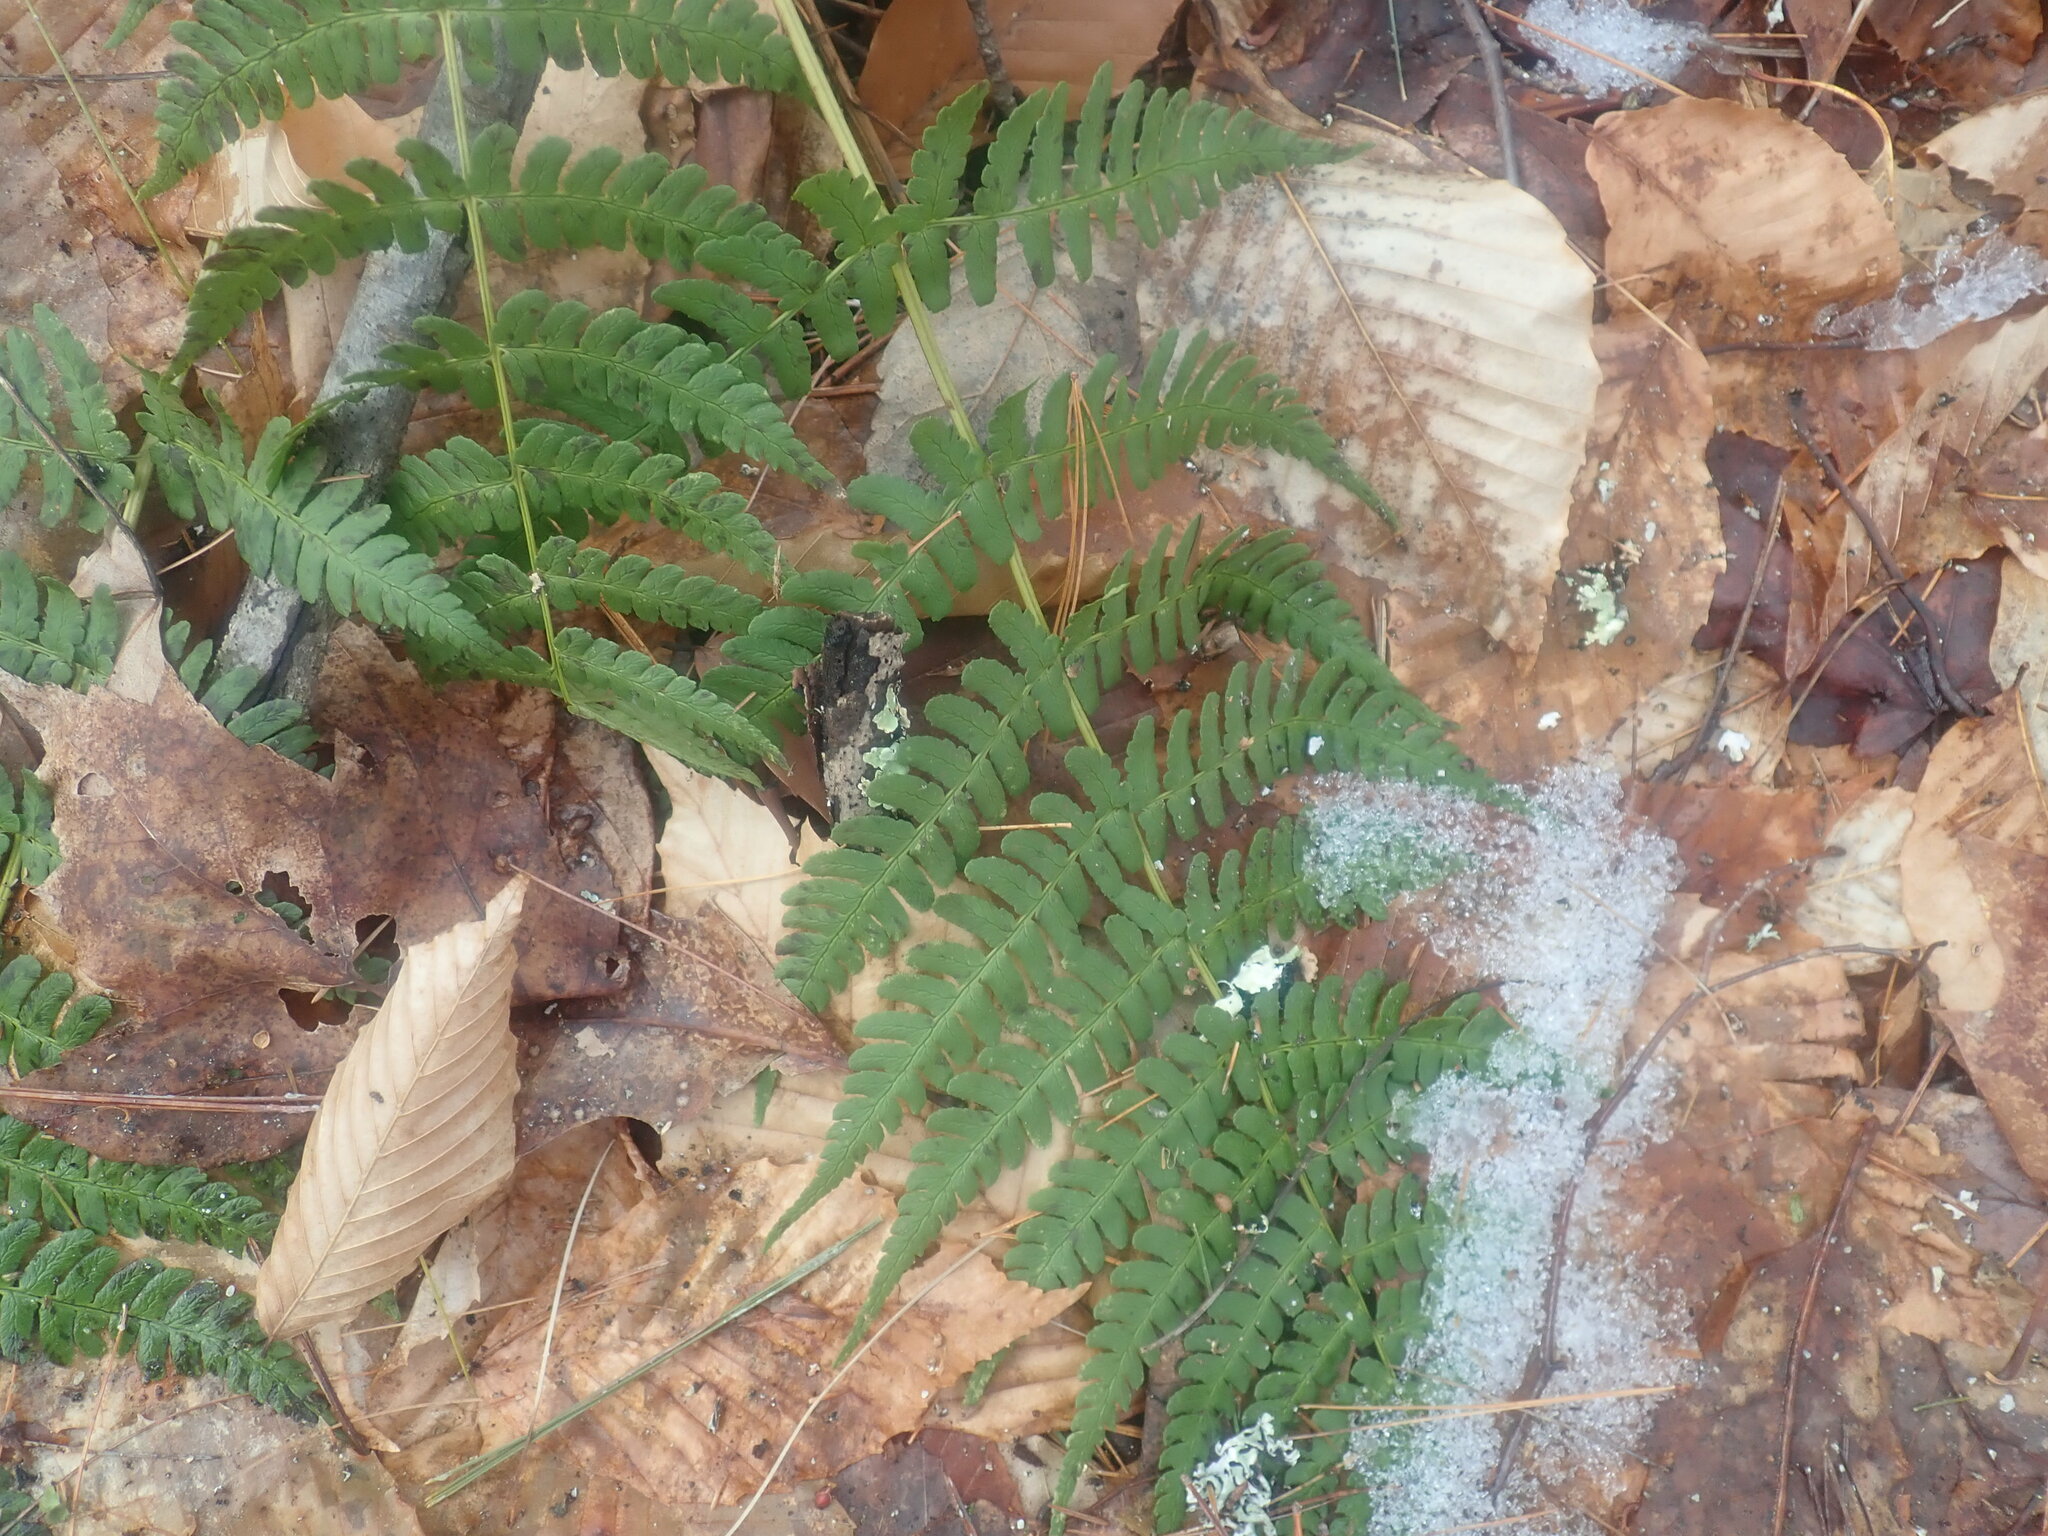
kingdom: Plantae
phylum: Tracheophyta
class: Polypodiopsida
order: Polypodiales
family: Dryopteridaceae
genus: Dryopteris
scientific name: Dryopteris marginalis
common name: Marginal wood fern
